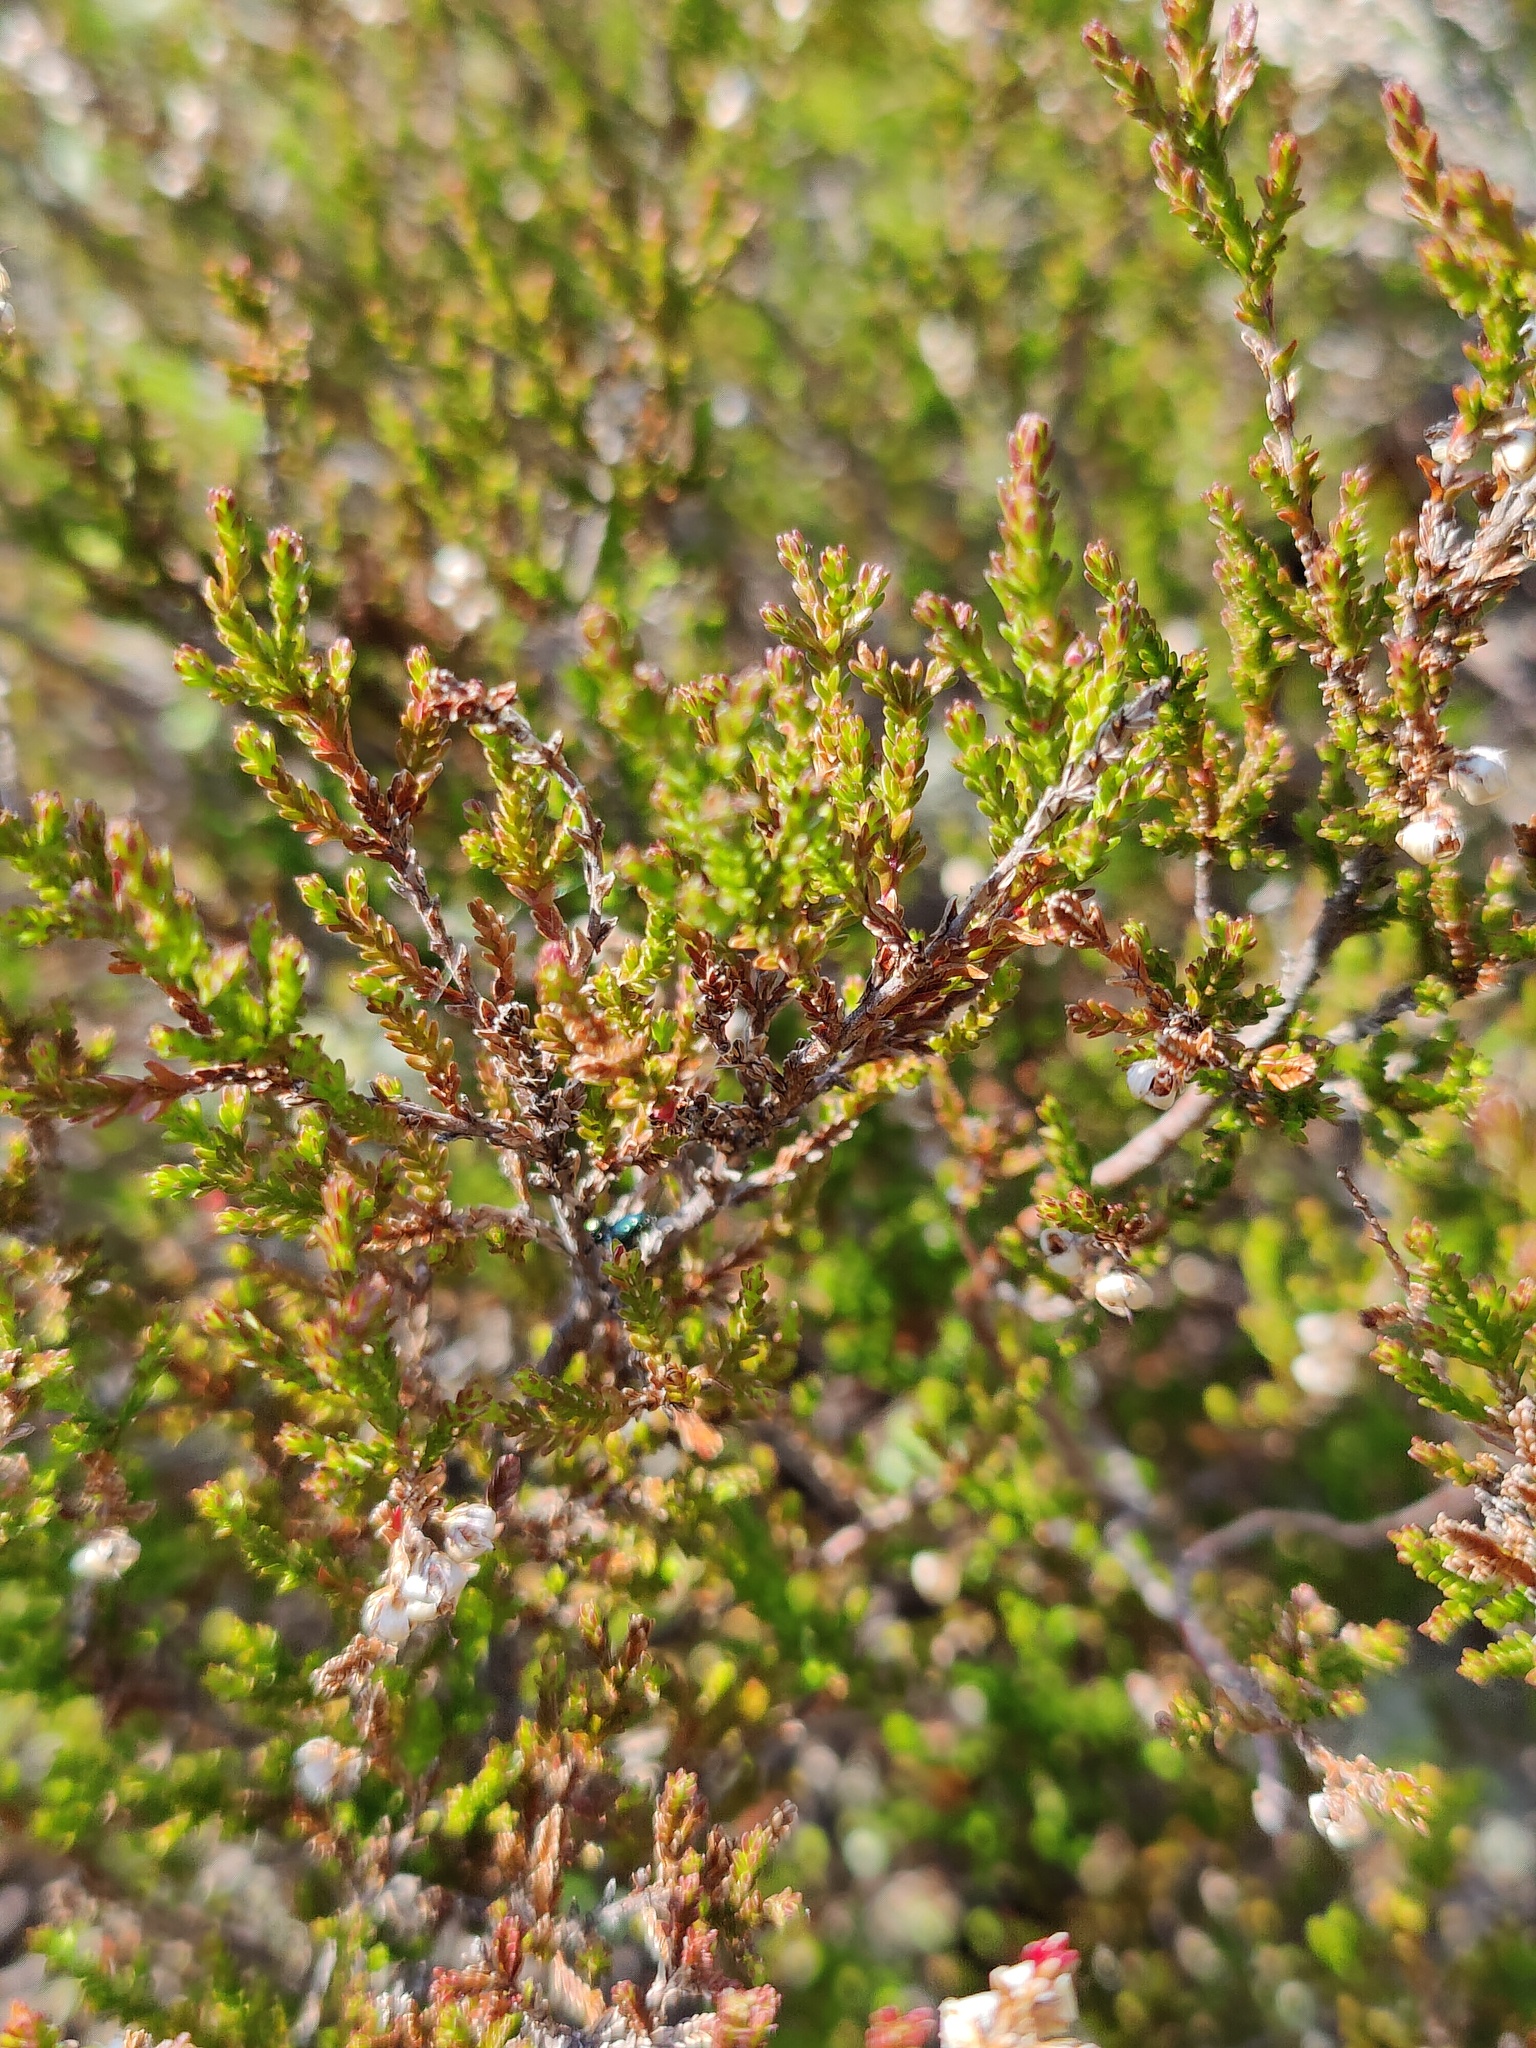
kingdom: Plantae
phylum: Tracheophyta
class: Magnoliopsida
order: Ericales
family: Ericaceae
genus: Calluna
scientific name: Calluna vulgaris
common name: Heather
